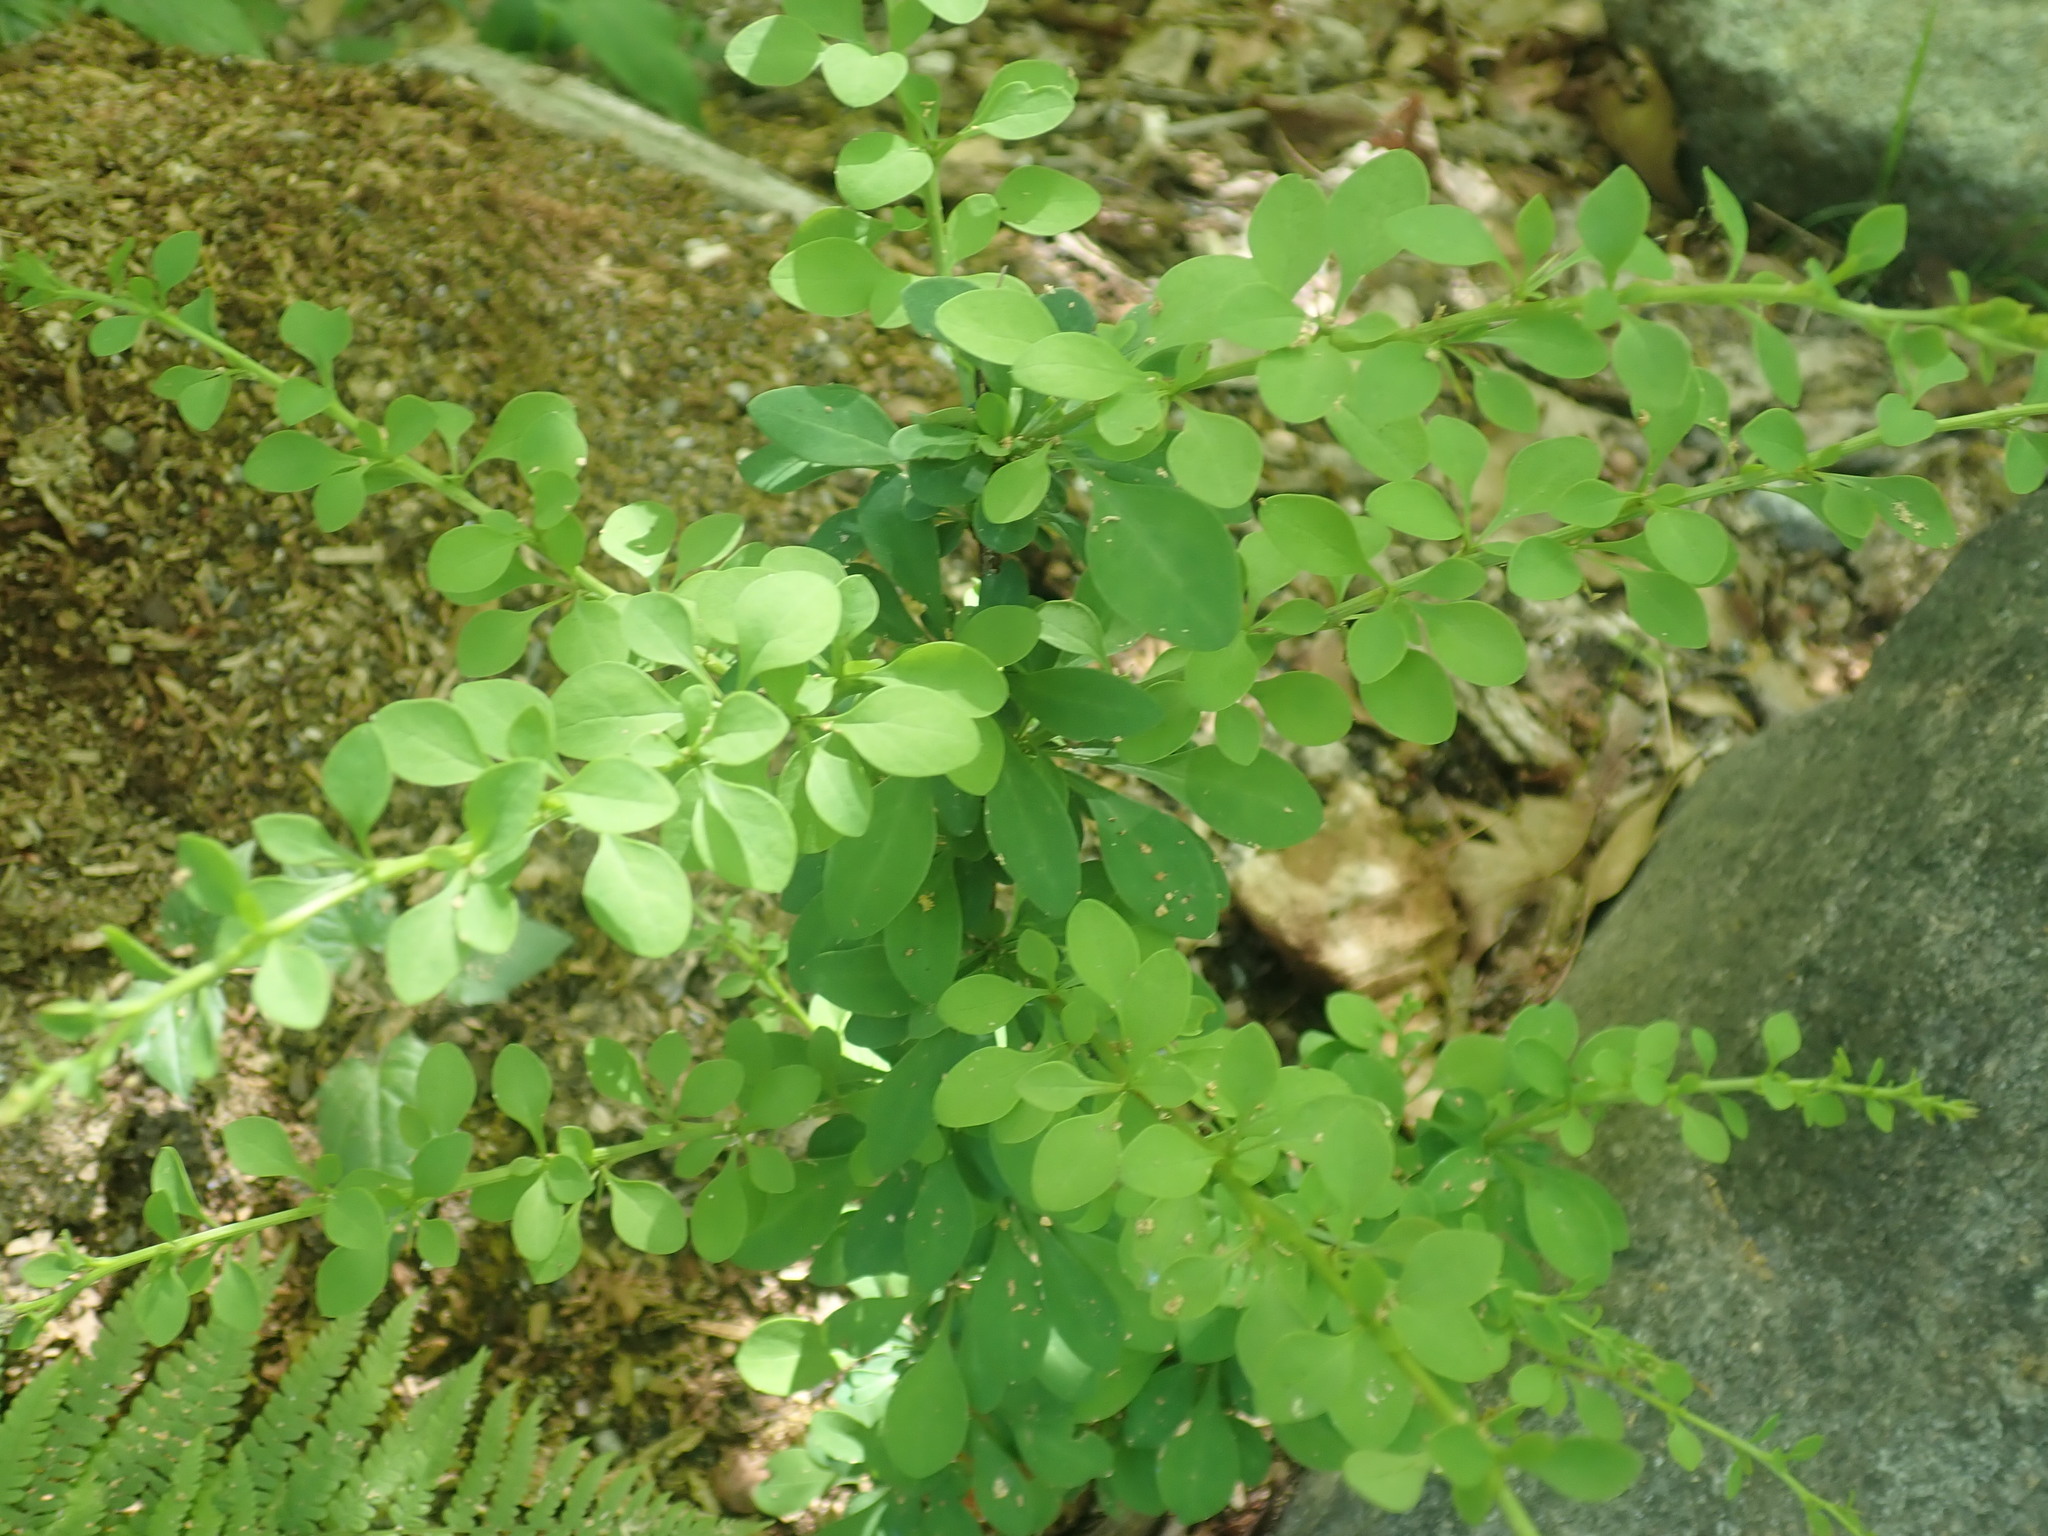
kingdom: Plantae
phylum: Tracheophyta
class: Magnoliopsida
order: Ranunculales
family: Berberidaceae
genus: Berberis
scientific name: Berberis thunbergii
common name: Japanese barberry
